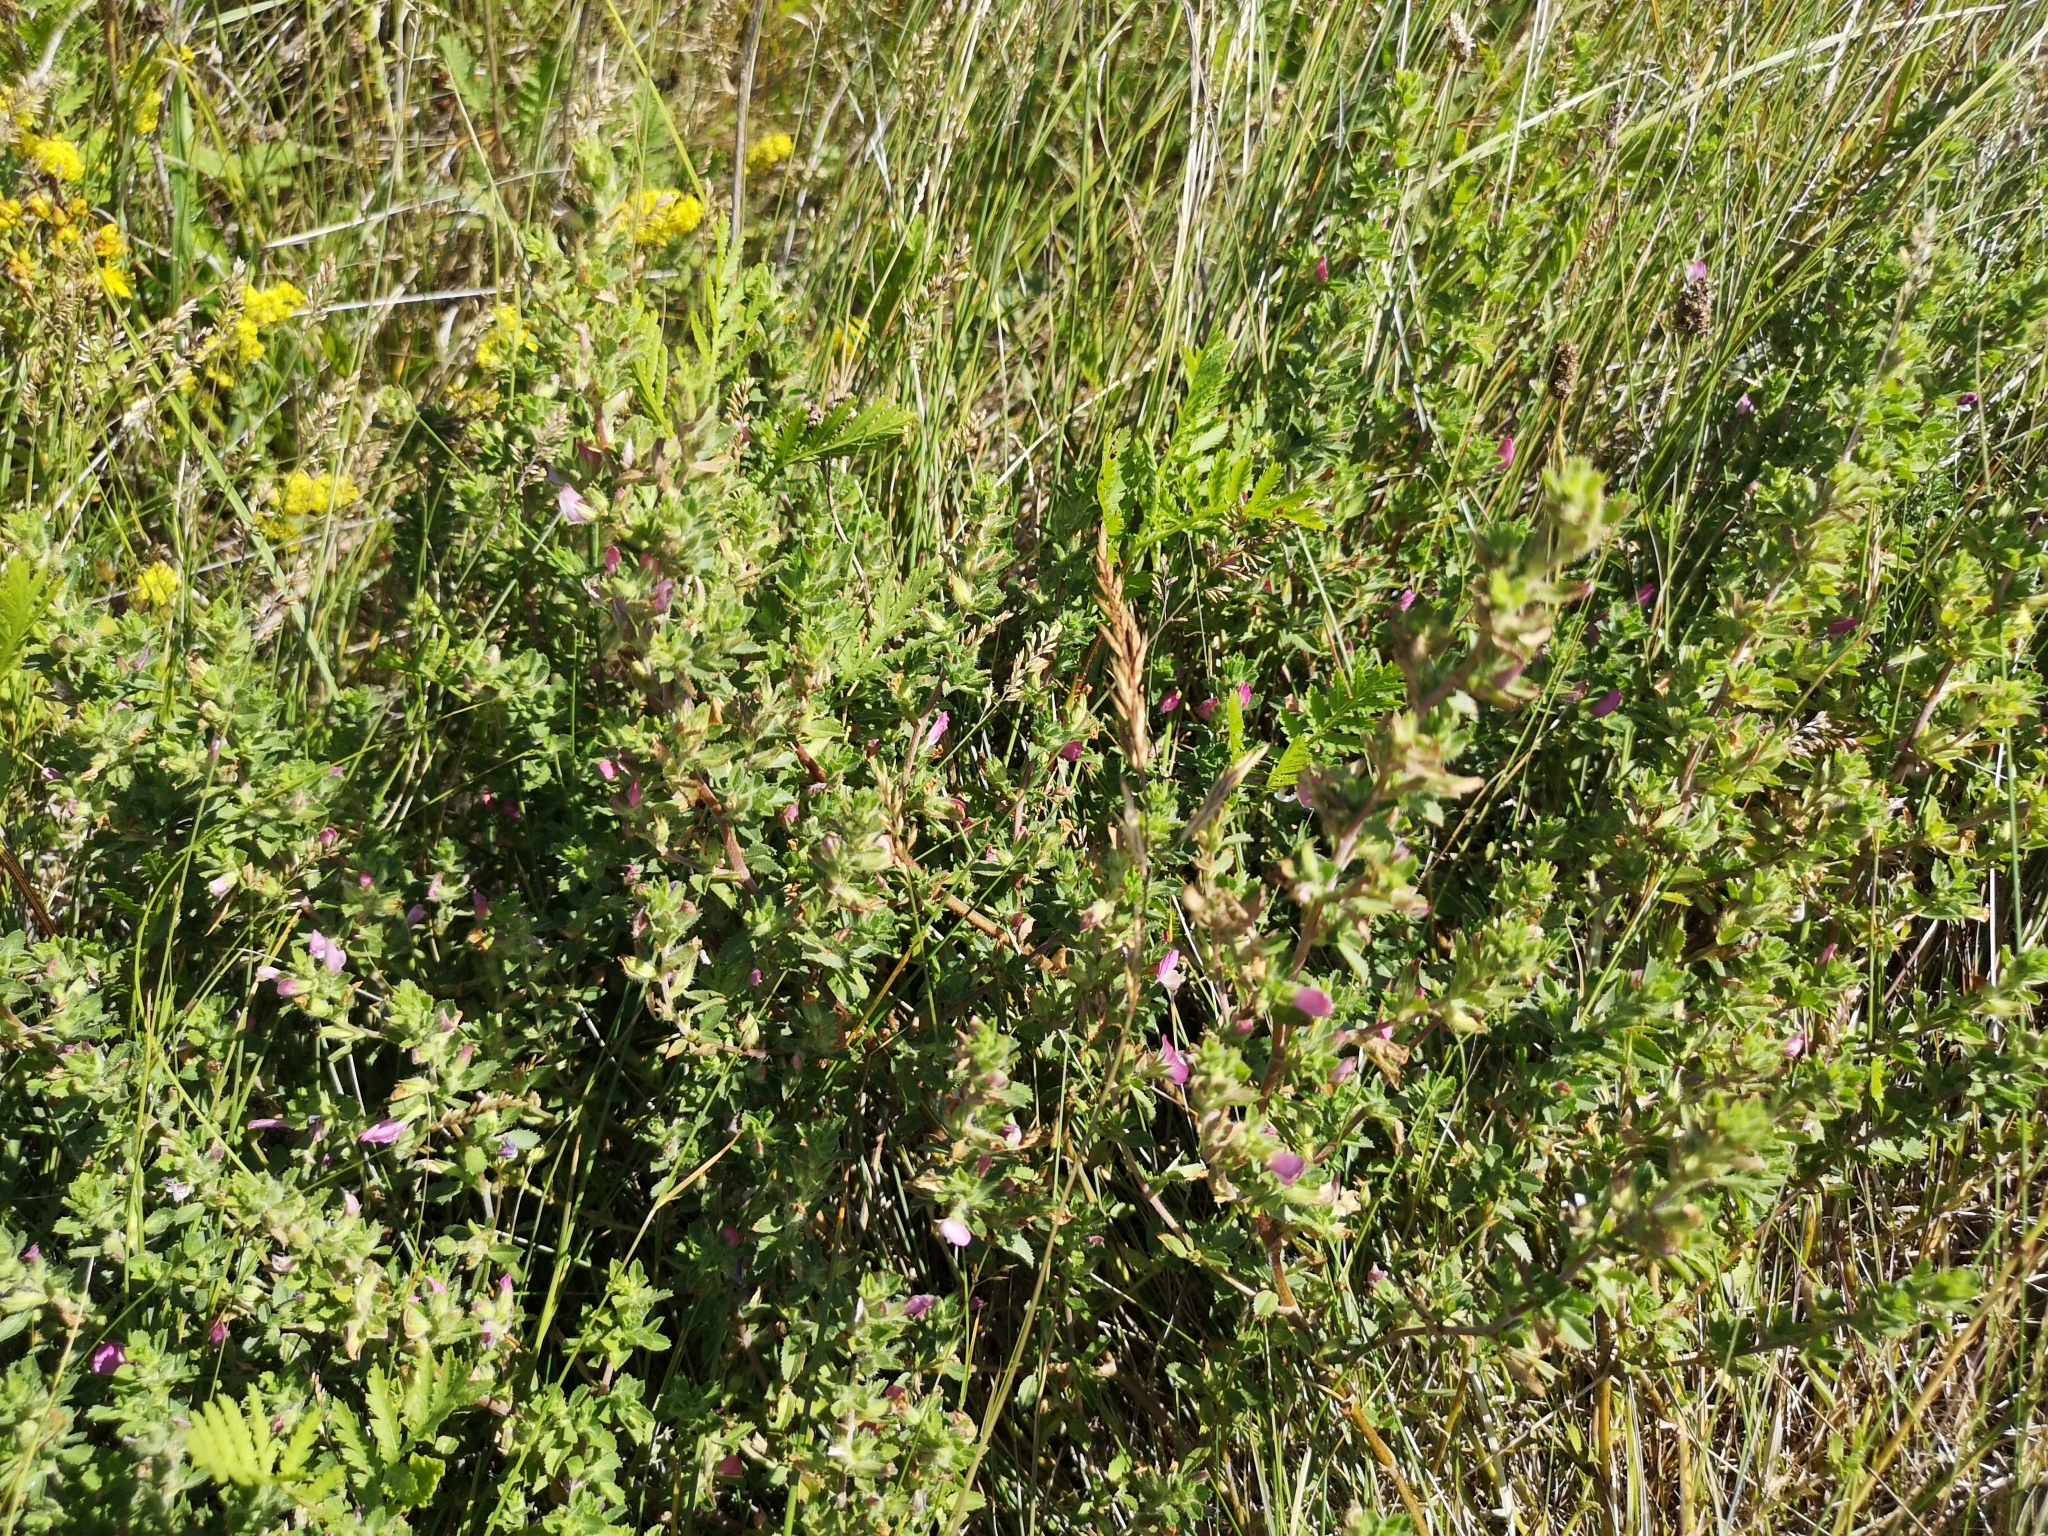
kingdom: Plantae
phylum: Tracheophyta
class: Magnoliopsida
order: Fabales
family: Fabaceae
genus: Ononis
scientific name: Ononis spinosa
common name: Spiny restharrow
